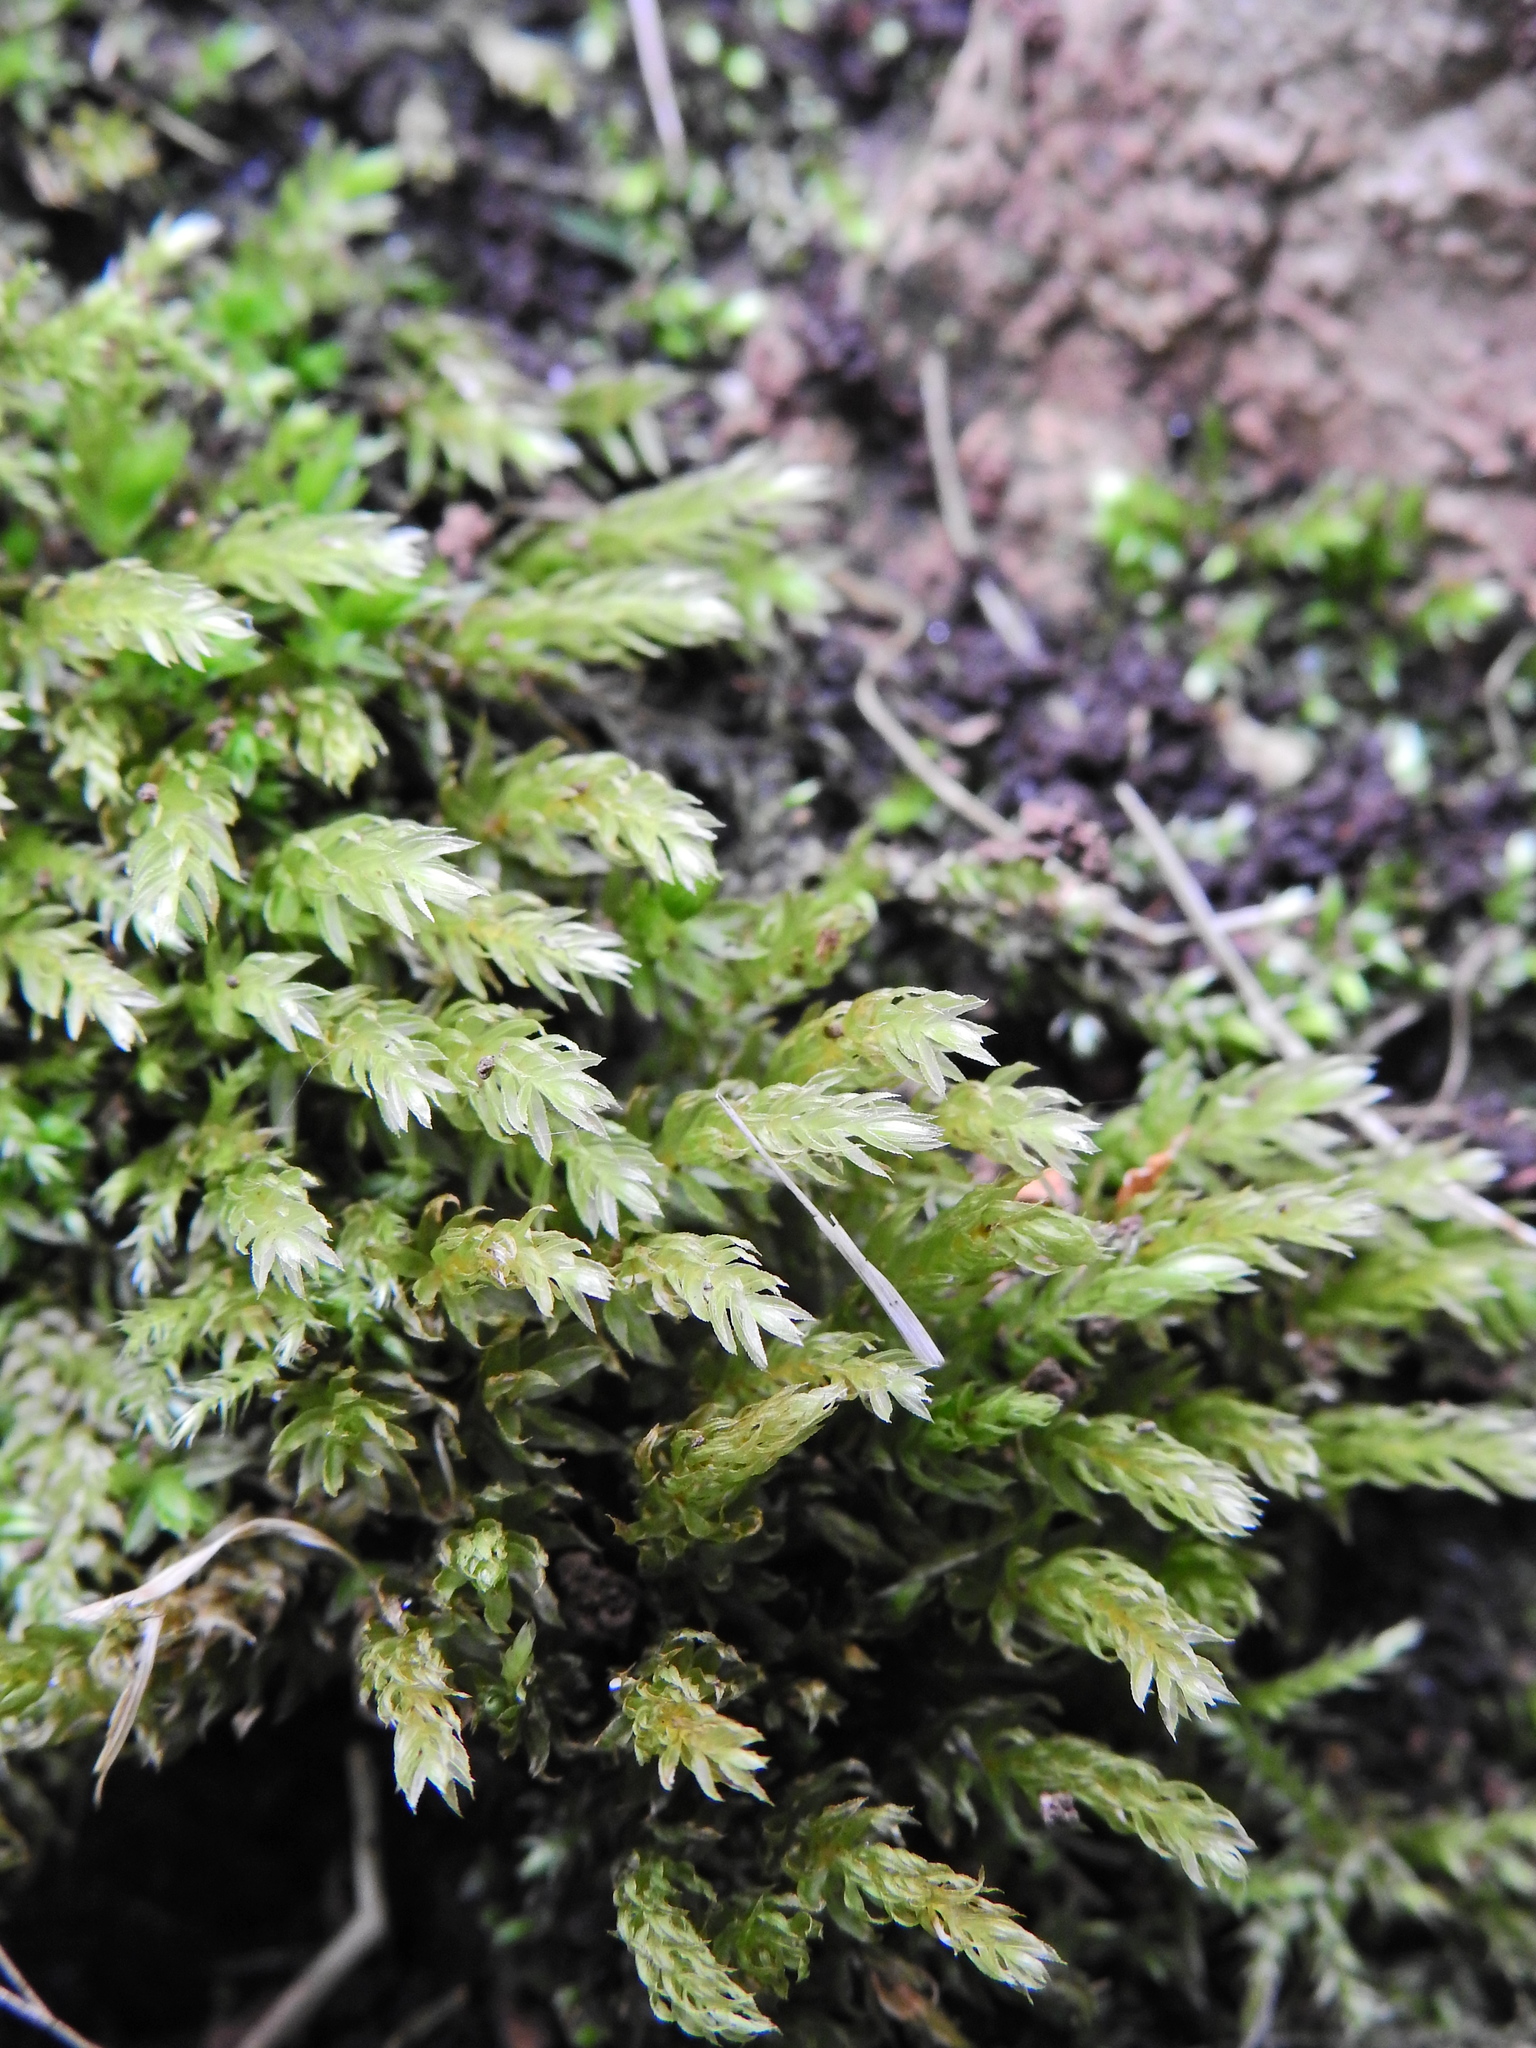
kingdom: Plantae
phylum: Bryophyta
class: Bryopsida
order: Bryales
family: Mniaceae
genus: Mnium
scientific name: Mnium hornum
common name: Swan's-neck leafy moss
